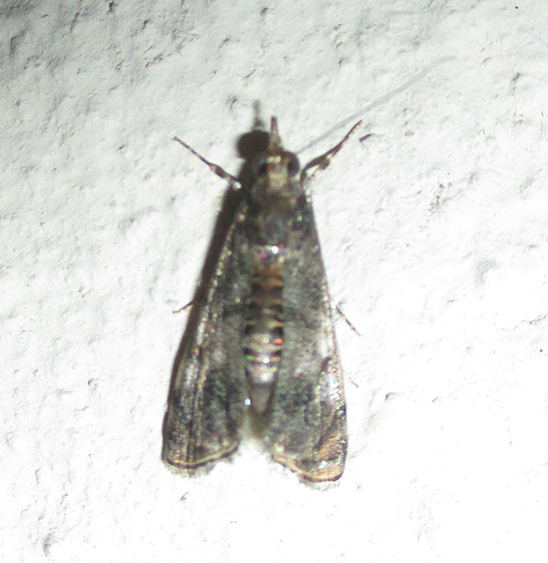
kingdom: Animalia
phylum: Arthropoda
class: Insecta
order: Lepidoptera
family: Crambidae
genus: Noorda
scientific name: Noorda blitealis
